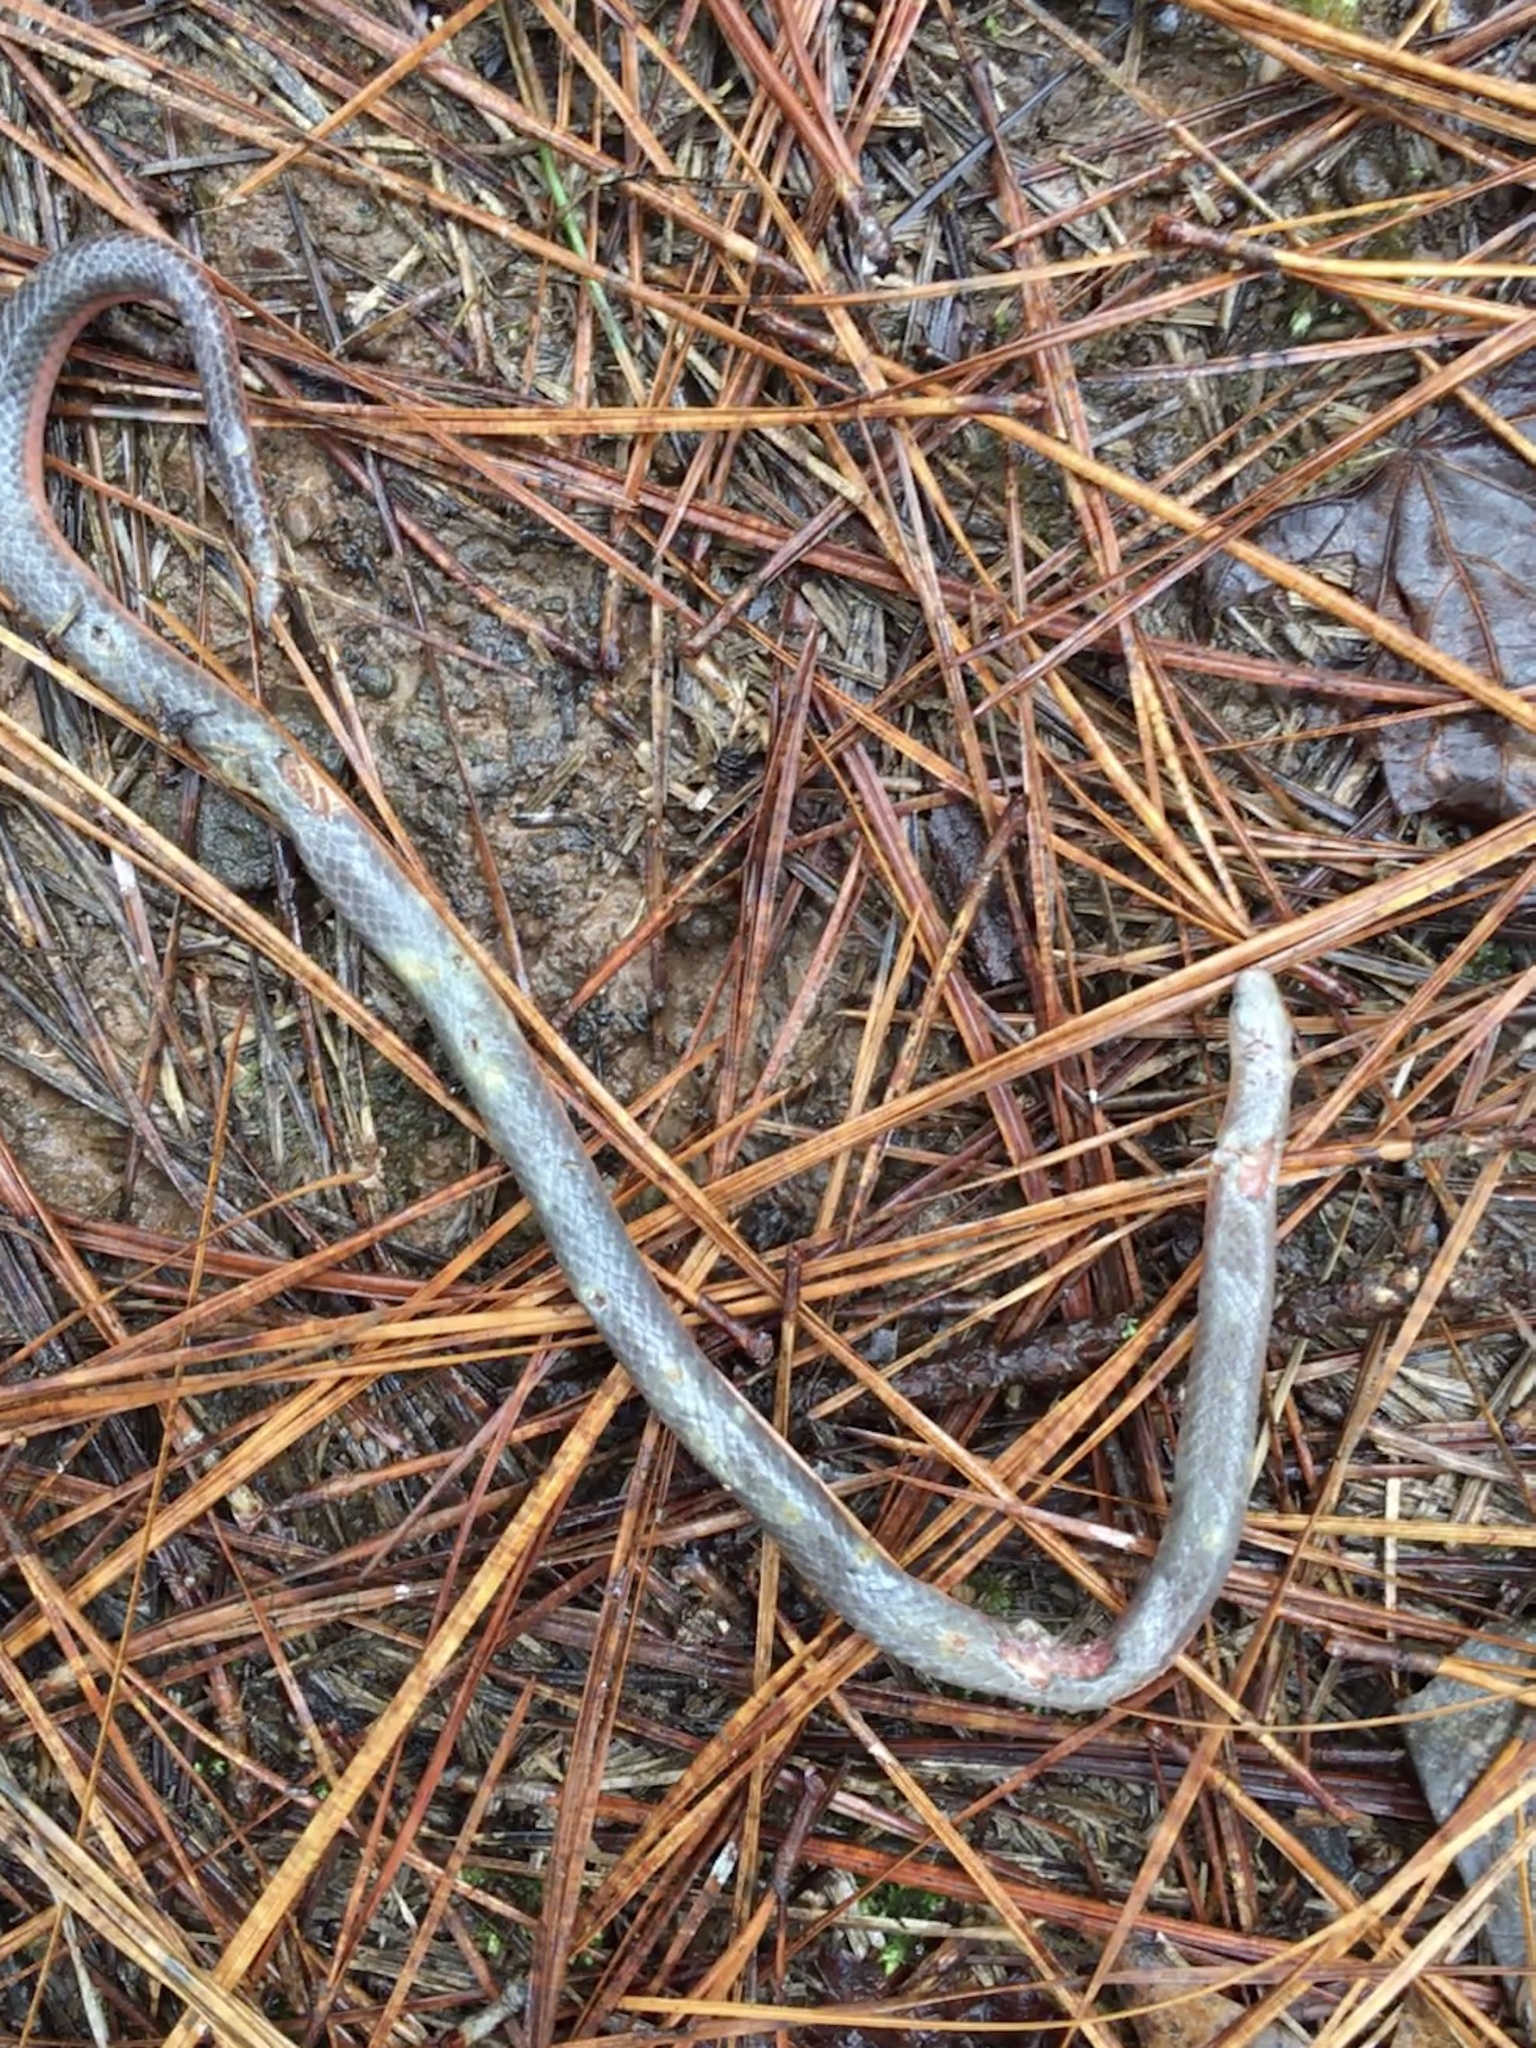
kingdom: Animalia
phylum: Chordata
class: Squamata
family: Colubridae
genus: Carphophis
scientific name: Carphophis amoenus
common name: Eastern worm snake
